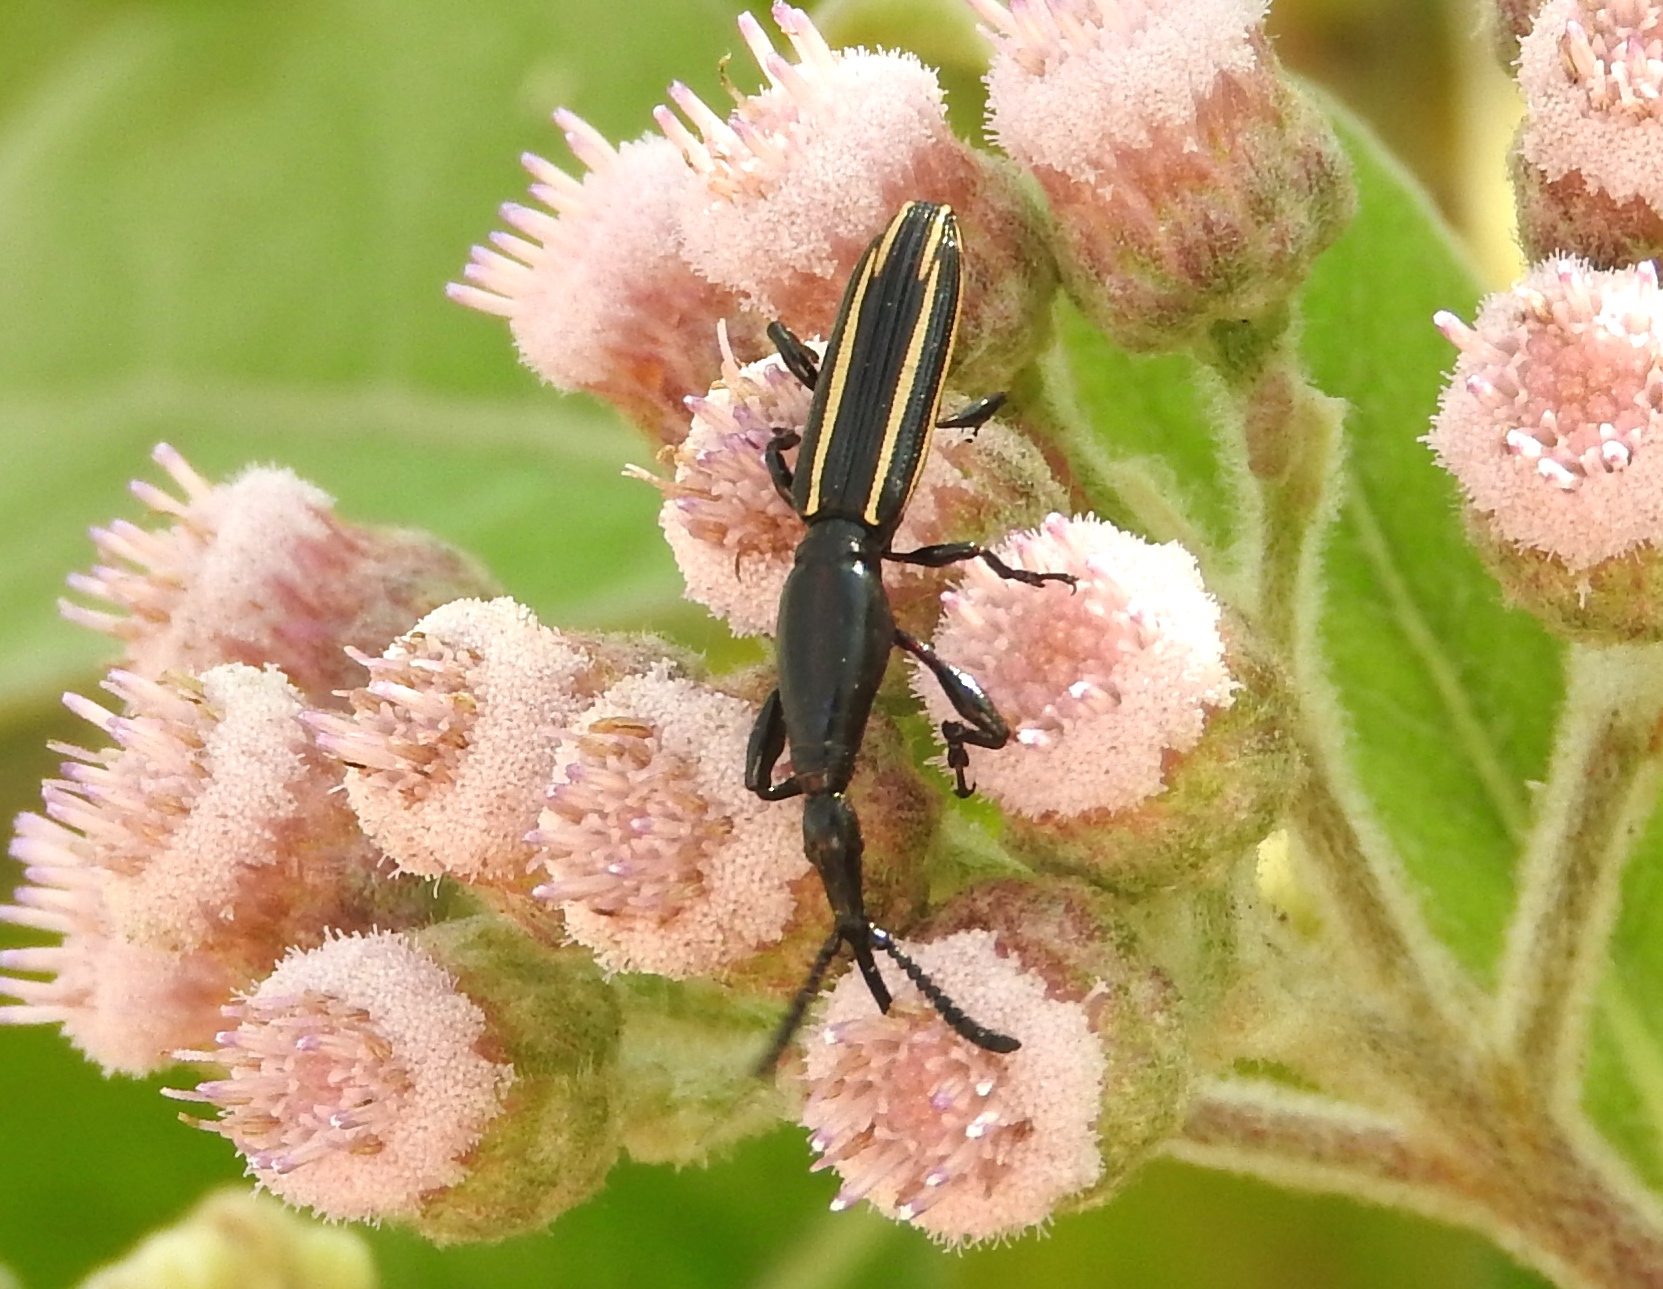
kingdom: Animalia
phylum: Arthropoda
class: Insecta
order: Coleoptera
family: Brentidae
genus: Brentus
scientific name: Brentus
